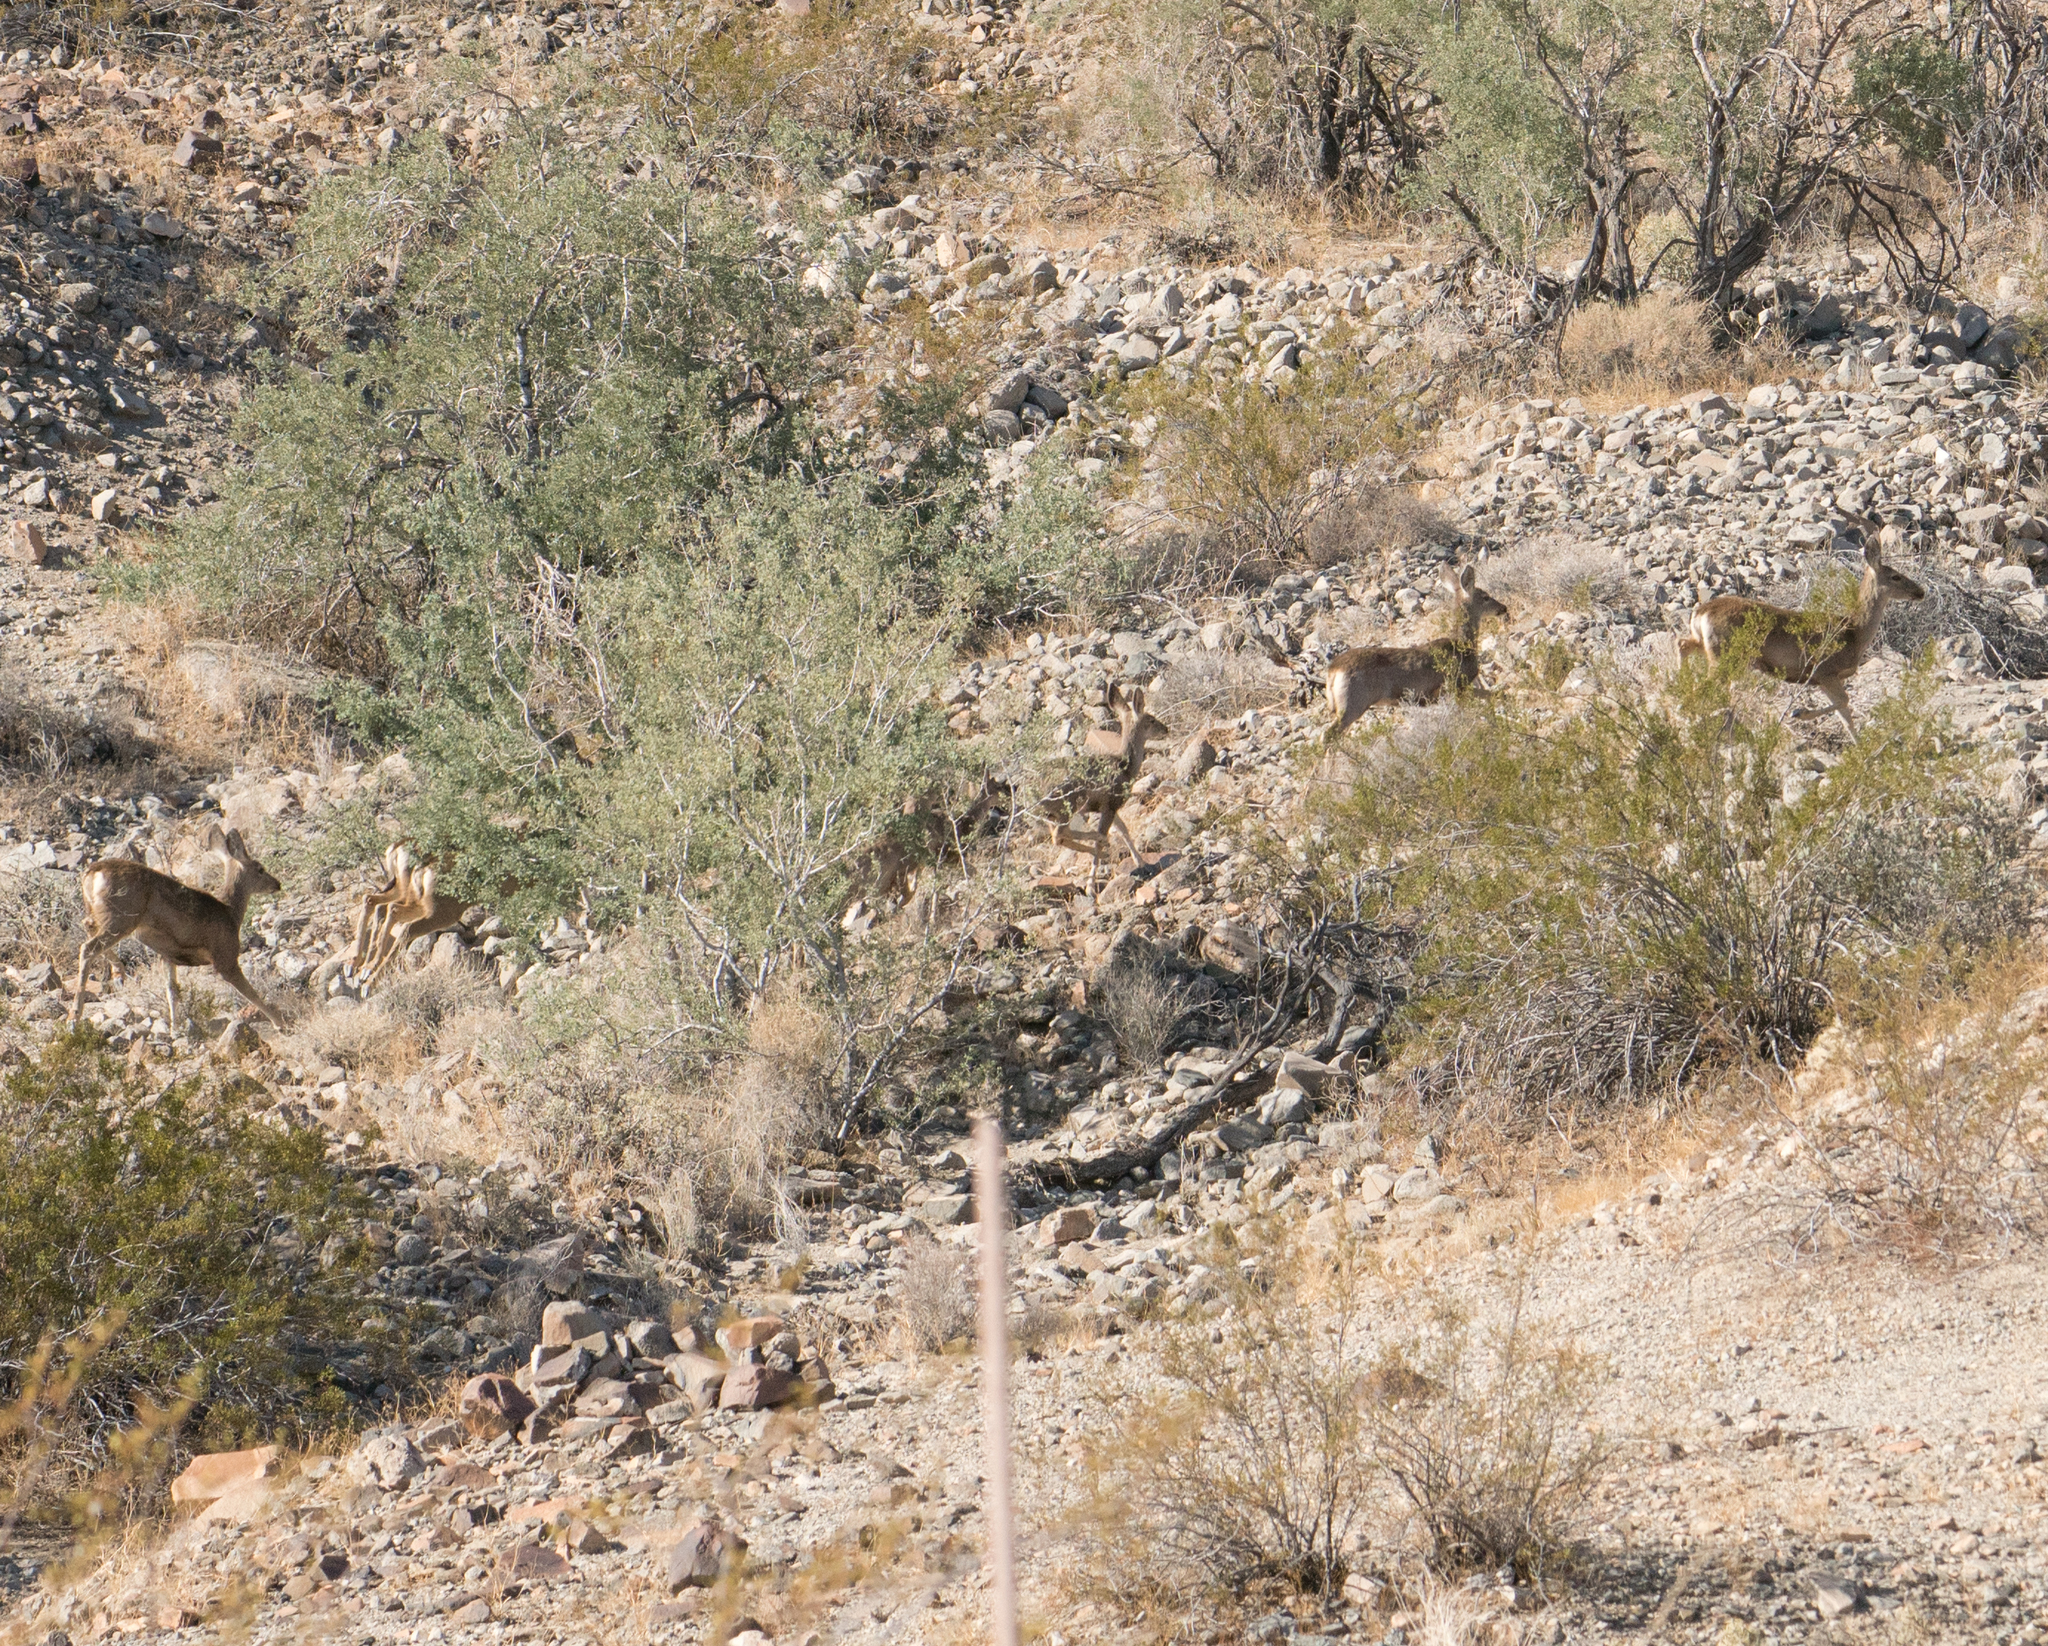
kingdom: Animalia
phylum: Chordata
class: Mammalia
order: Artiodactyla
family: Cervidae
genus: Odocoileus
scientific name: Odocoileus hemionus
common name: Mule deer
